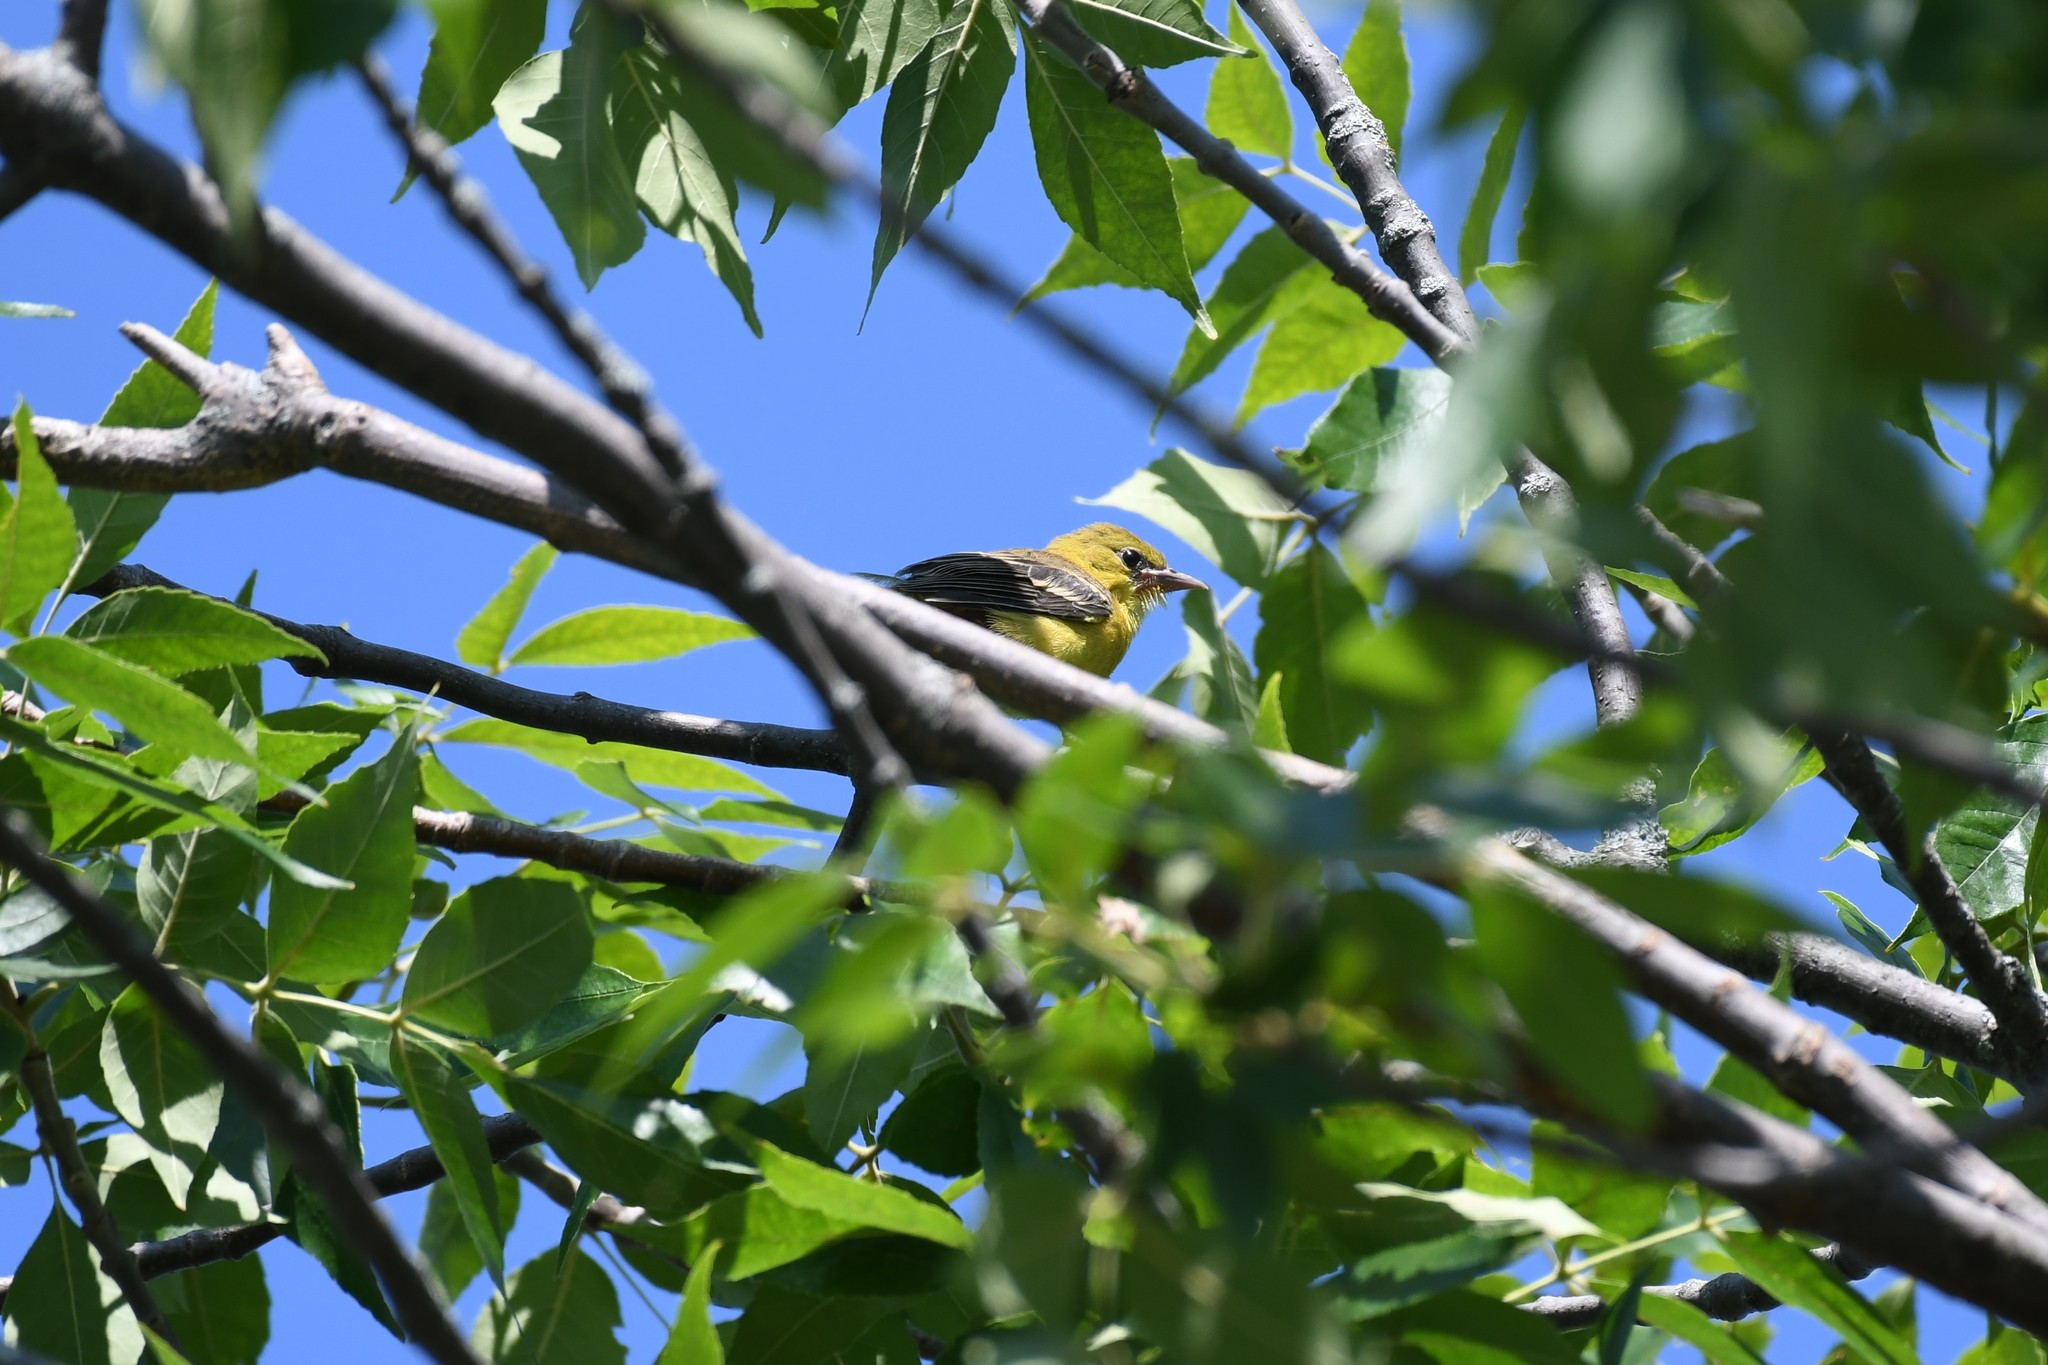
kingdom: Animalia
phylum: Chordata
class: Aves
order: Passeriformes
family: Icteridae
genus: Icterus
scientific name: Icterus spurius
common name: Orchard oriole
